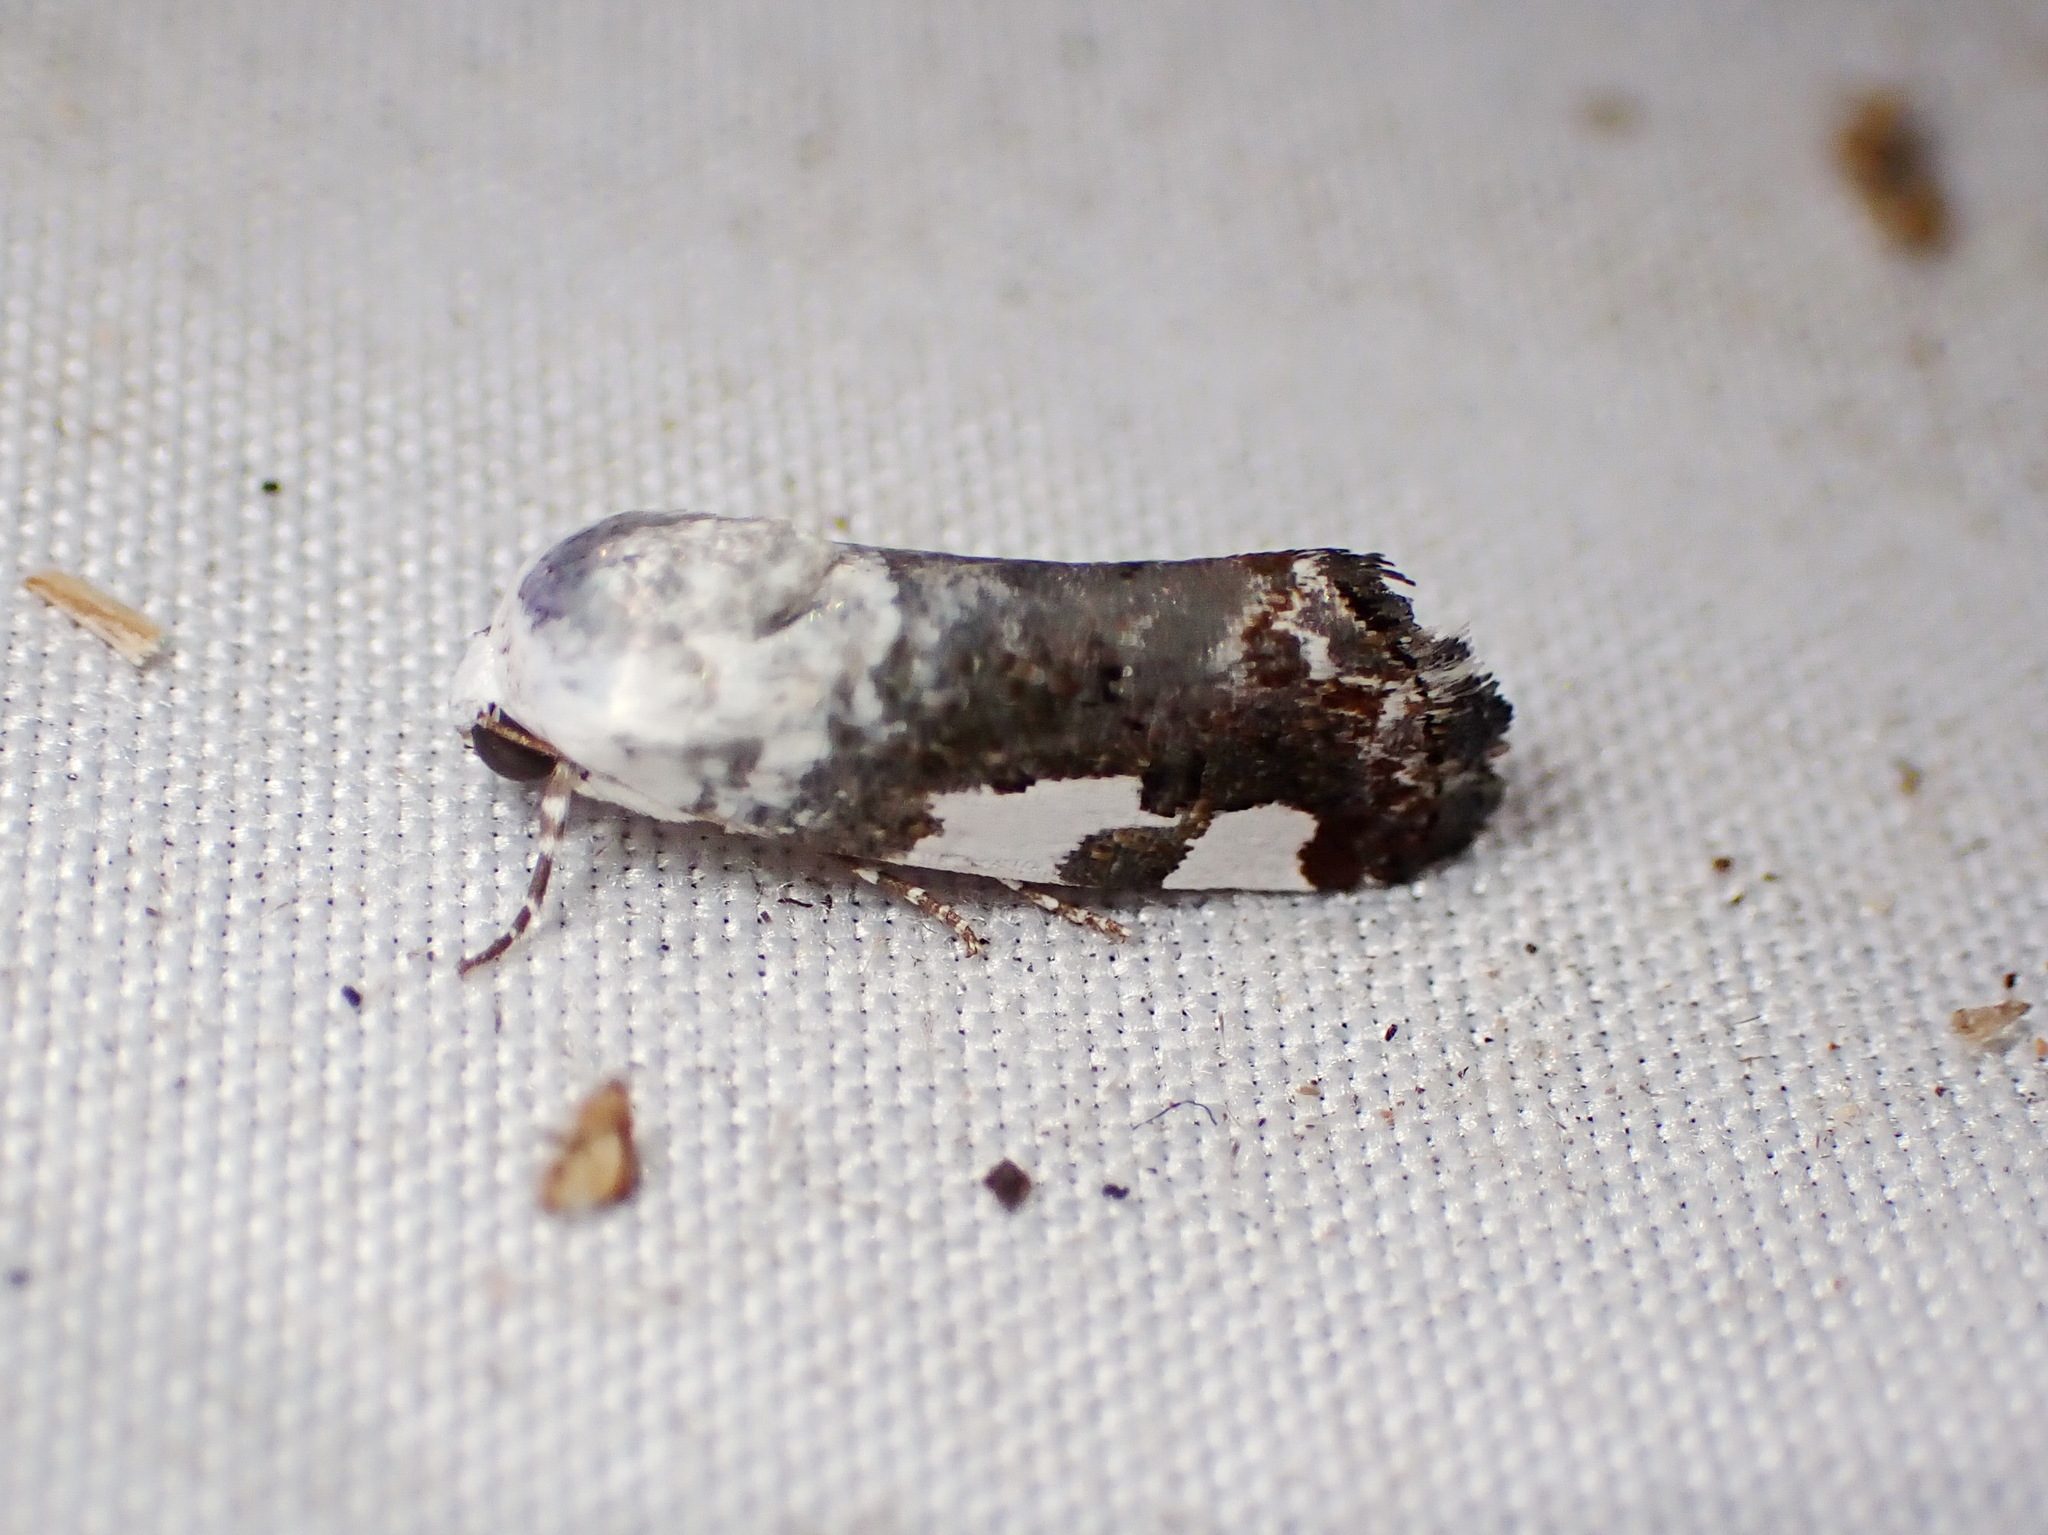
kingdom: Animalia
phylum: Arthropoda
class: Insecta
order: Lepidoptera
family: Noctuidae
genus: Acontia
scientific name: Acontia quadriplaga
